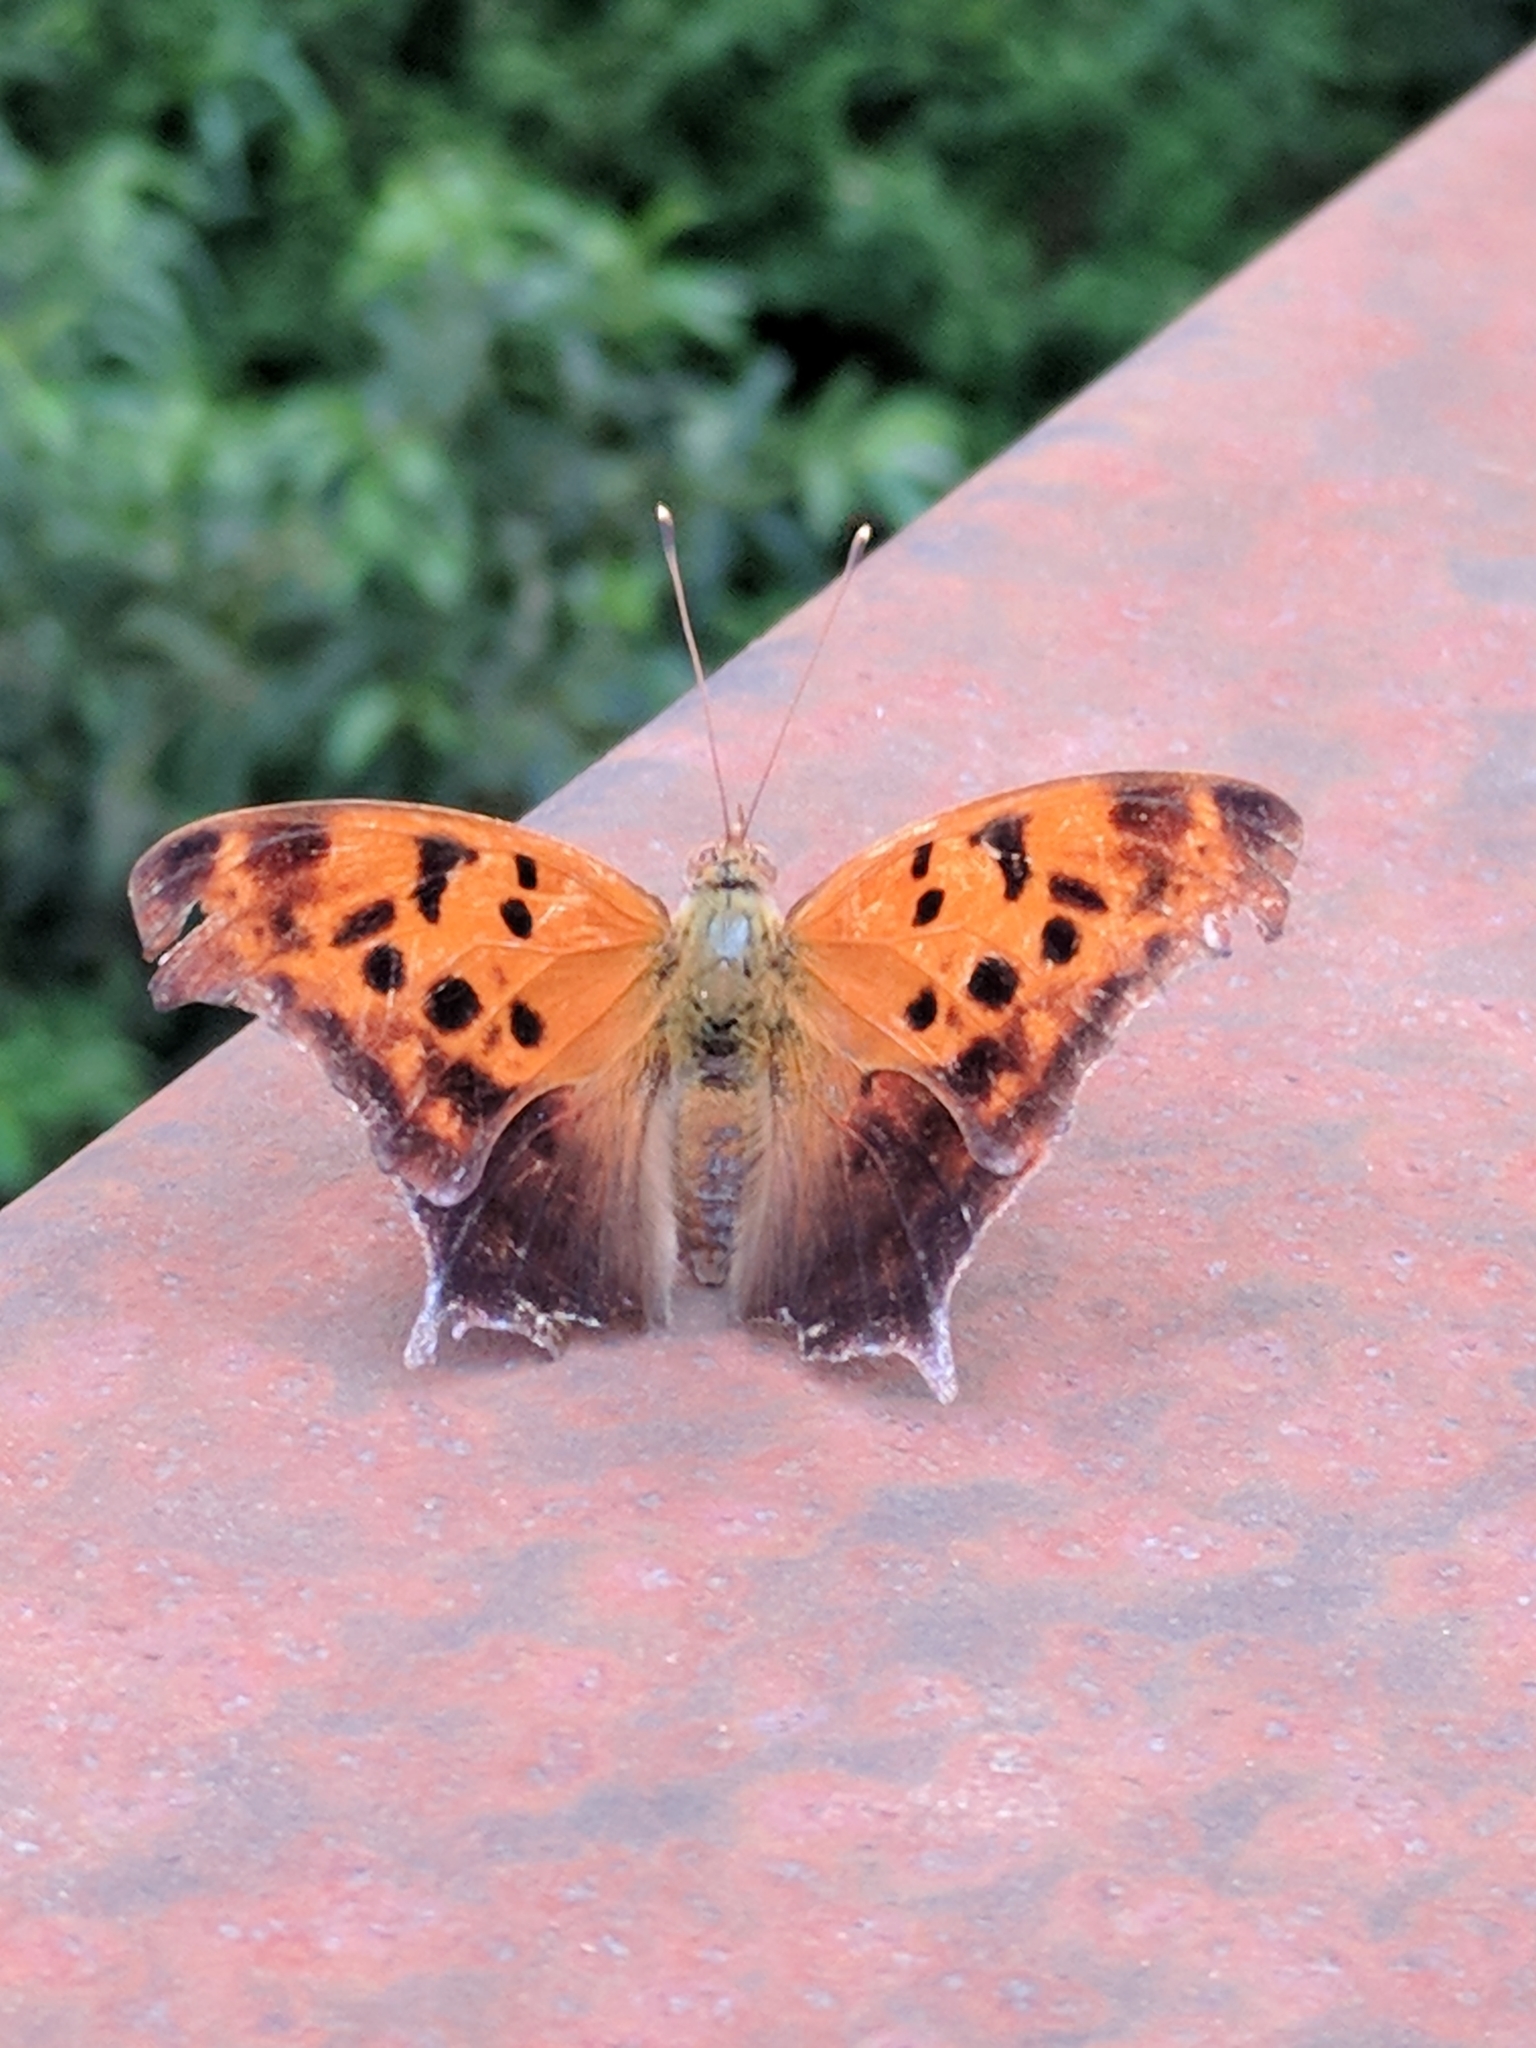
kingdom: Animalia
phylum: Arthropoda
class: Insecta
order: Lepidoptera
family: Nymphalidae
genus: Polygonia
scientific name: Polygonia interrogationis
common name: Question mark
